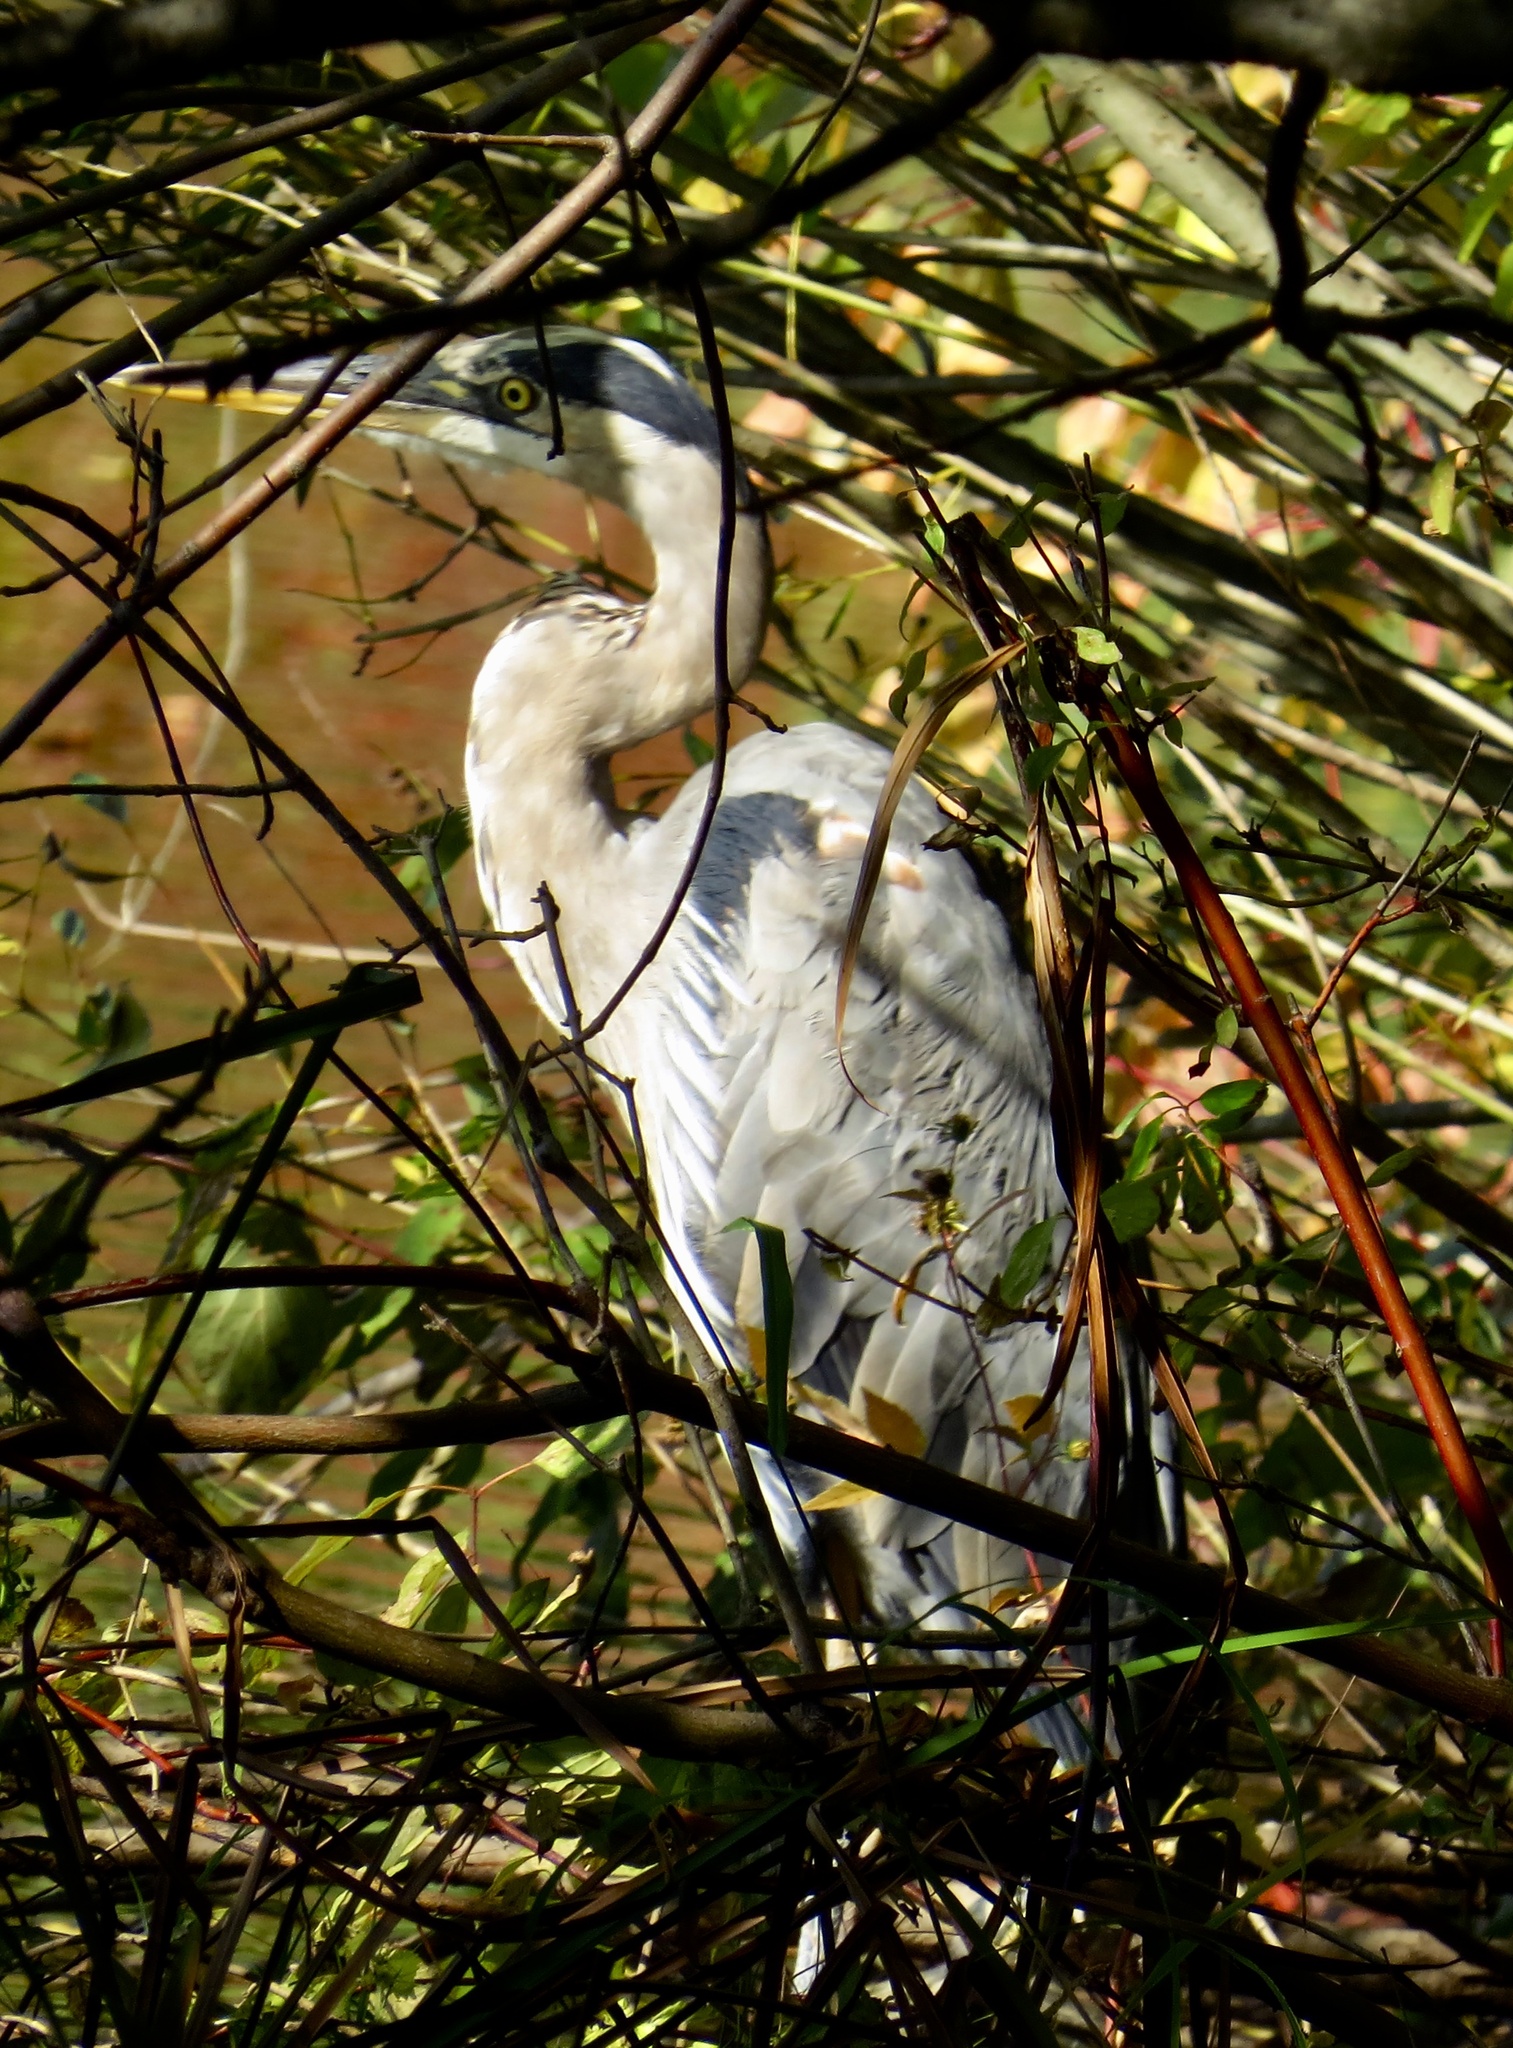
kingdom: Animalia
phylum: Chordata
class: Aves
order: Pelecaniformes
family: Ardeidae
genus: Ardea
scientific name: Ardea herodias
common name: Great blue heron
